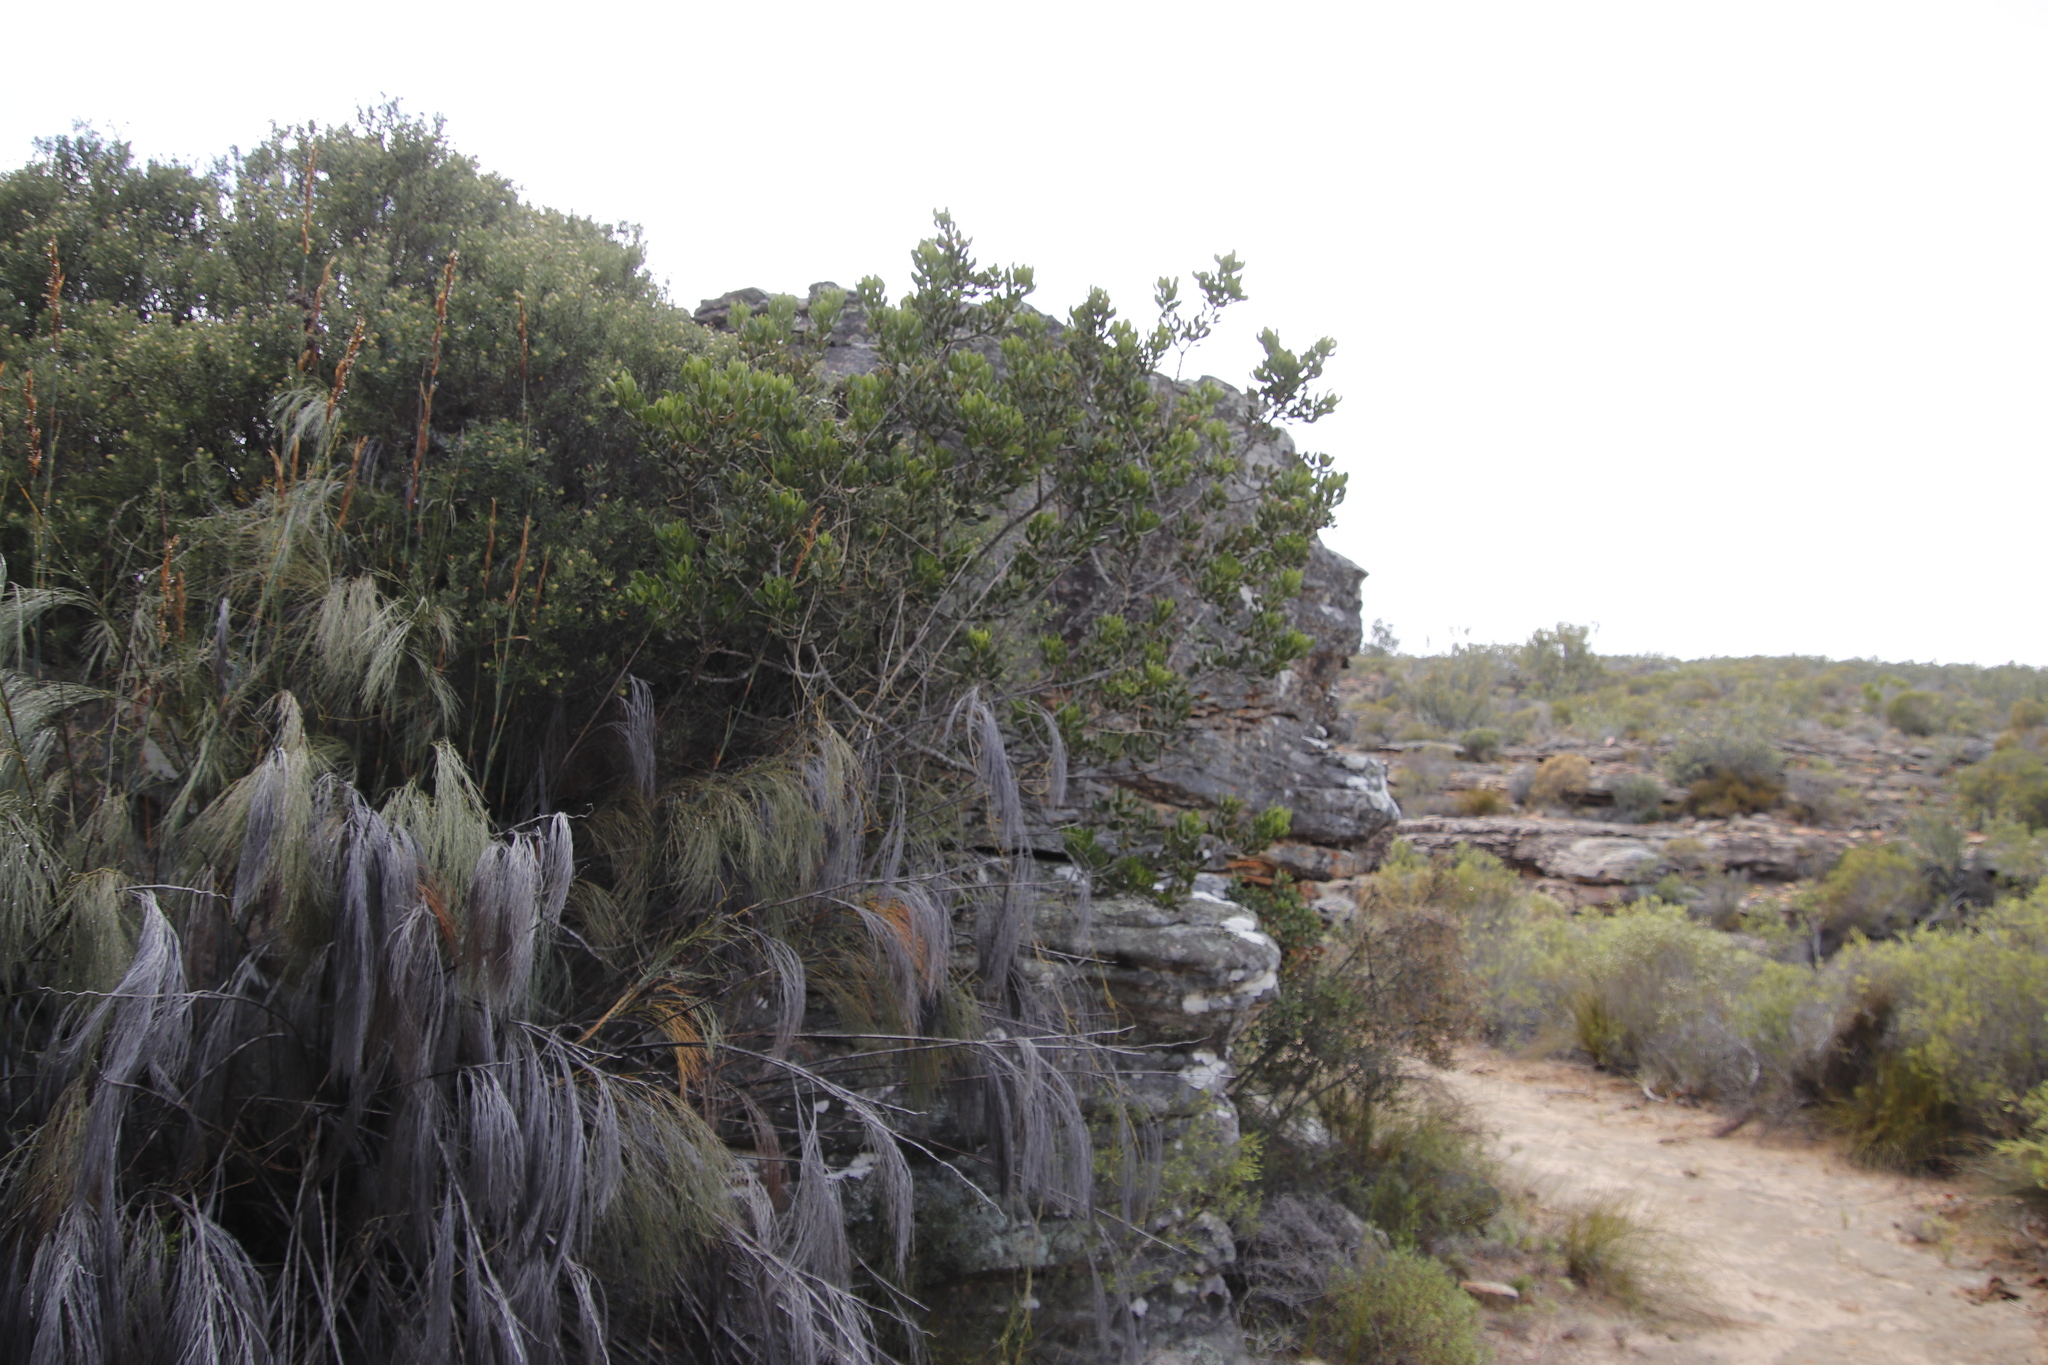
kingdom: Plantae
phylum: Tracheophyta
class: Liliopsida
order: Poales
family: Restionaceae
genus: Cannomois
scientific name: Cannomois robusta
